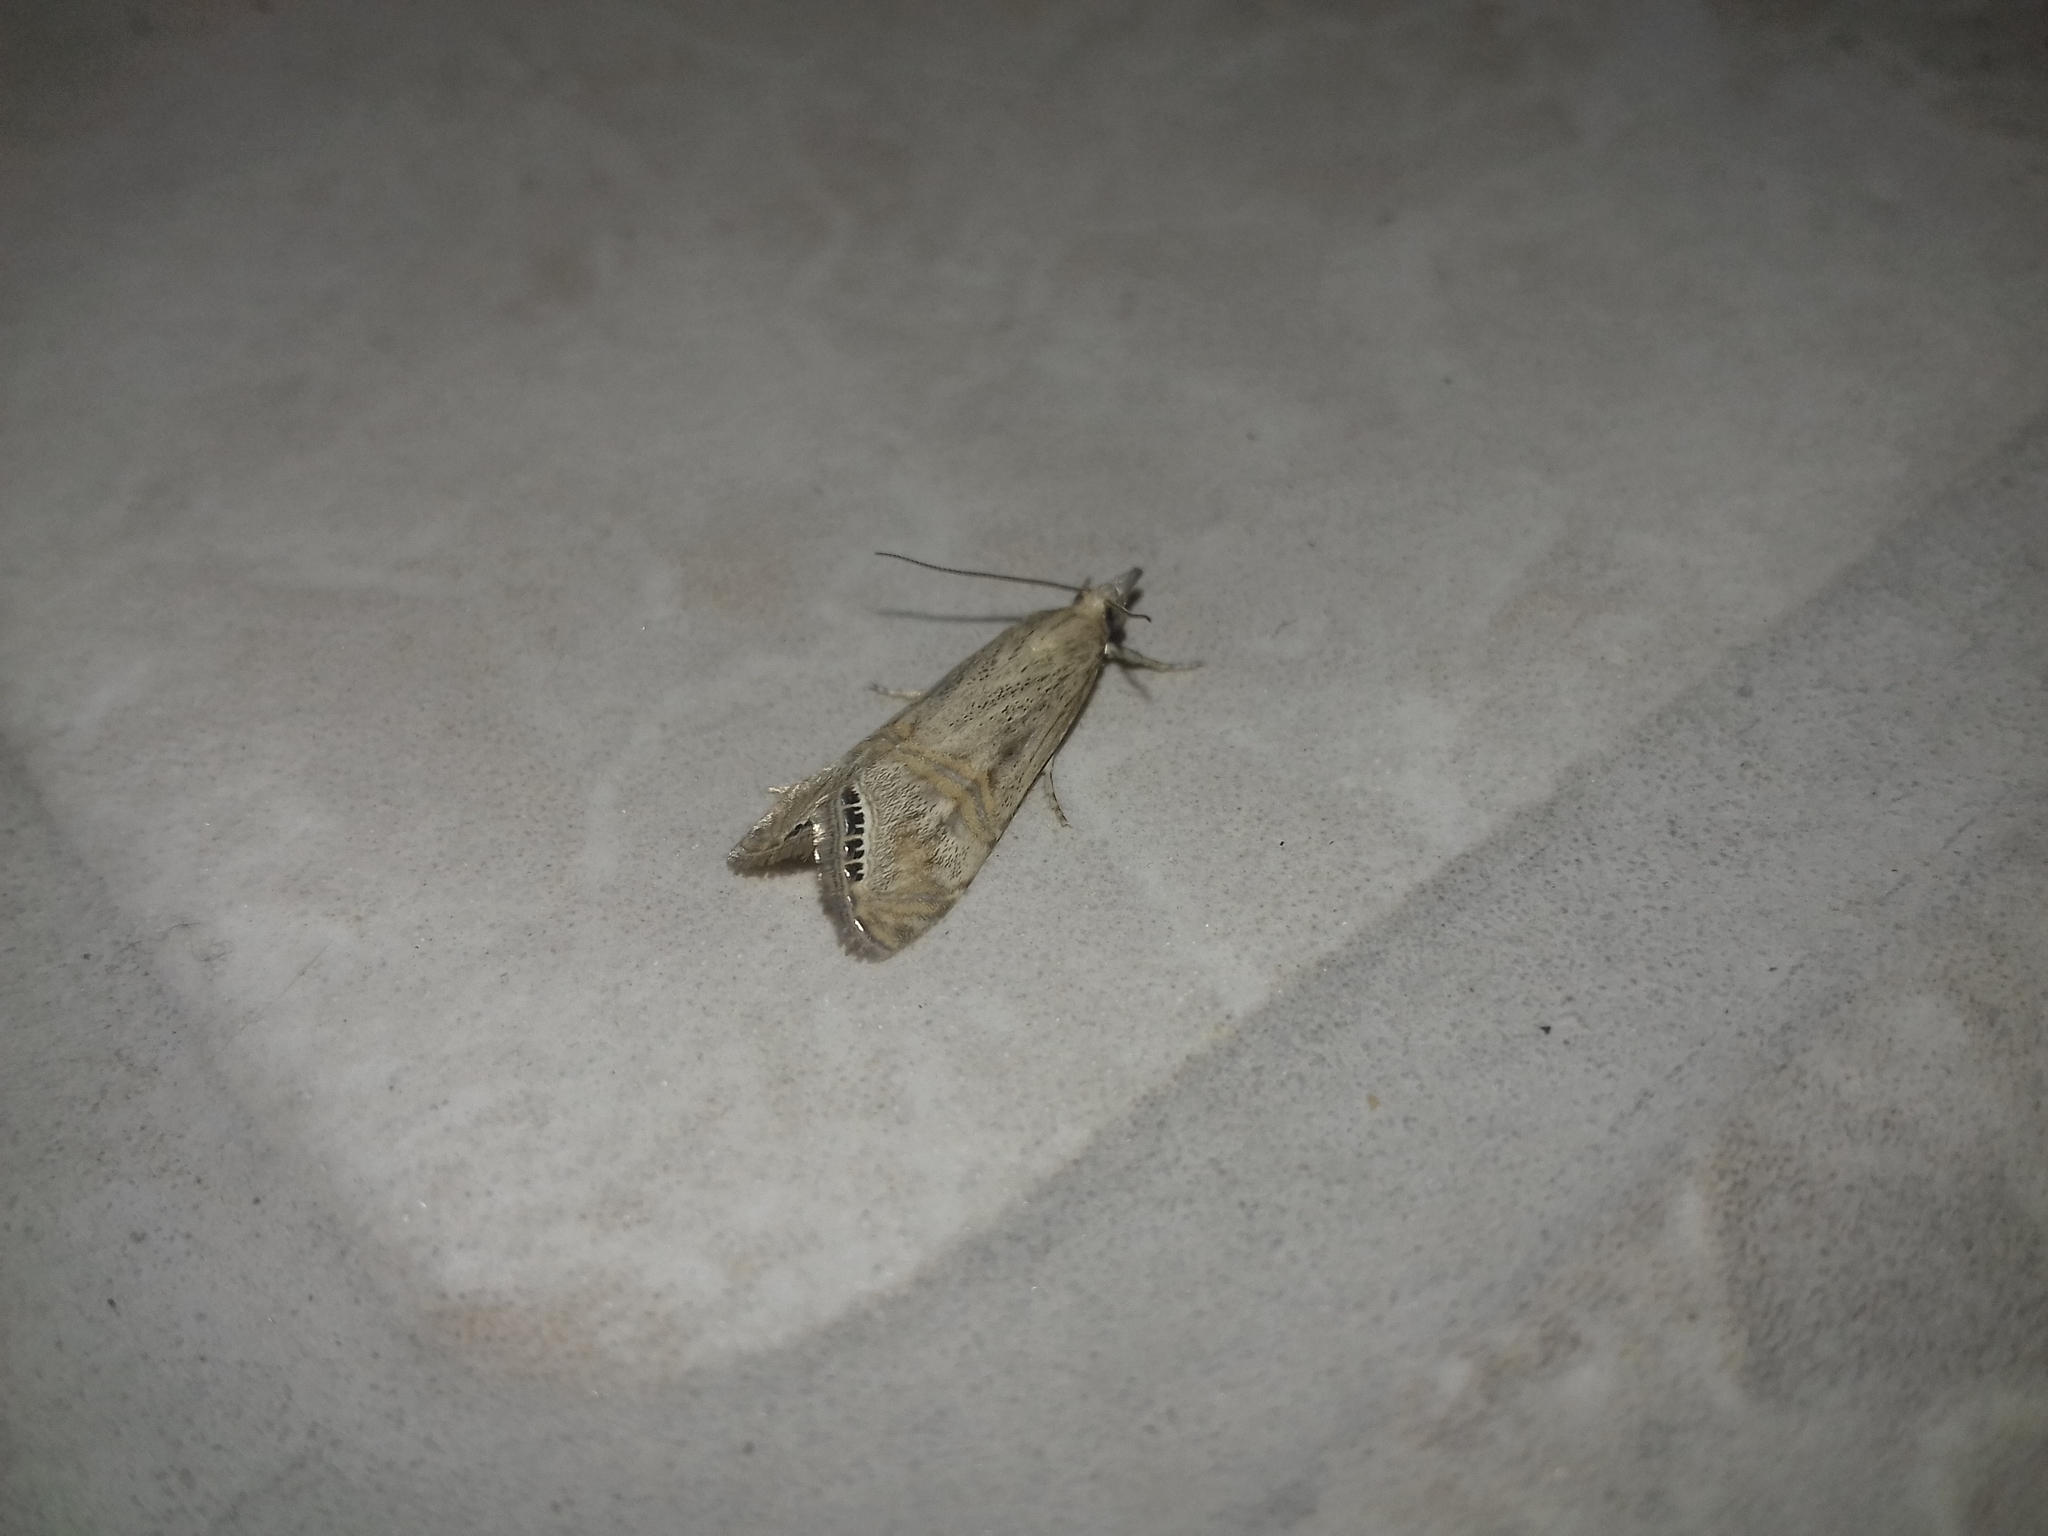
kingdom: Animalia
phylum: Arthropoda
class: Insecta
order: Lepidoptera
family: Crambidae
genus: Euchromius
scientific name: Euchromius ocellea
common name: Necklace veneer moth
